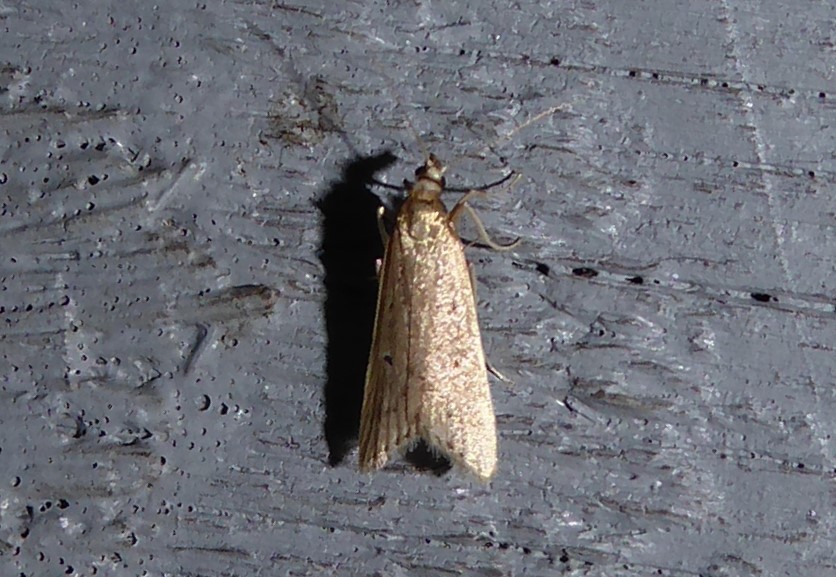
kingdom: Animalia
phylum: Arthropoda
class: Insecta
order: Lepidoptera
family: Crambidae
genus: Antiscopa
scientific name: Antiscopa elaphra
